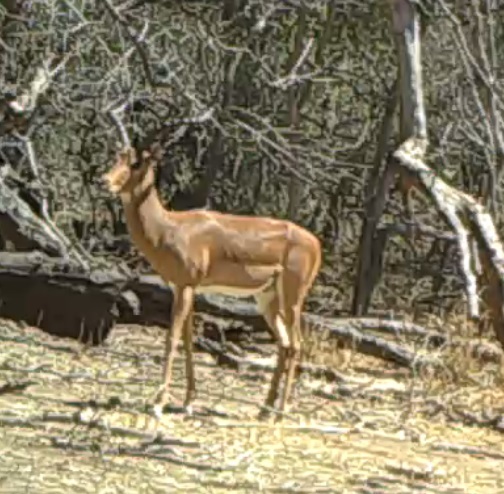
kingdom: Animalia
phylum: Chordata
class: Mammalia
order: Artiodactyla
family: Bovidae
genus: Aepyceros
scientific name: Aepyceros melampus
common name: Impala
